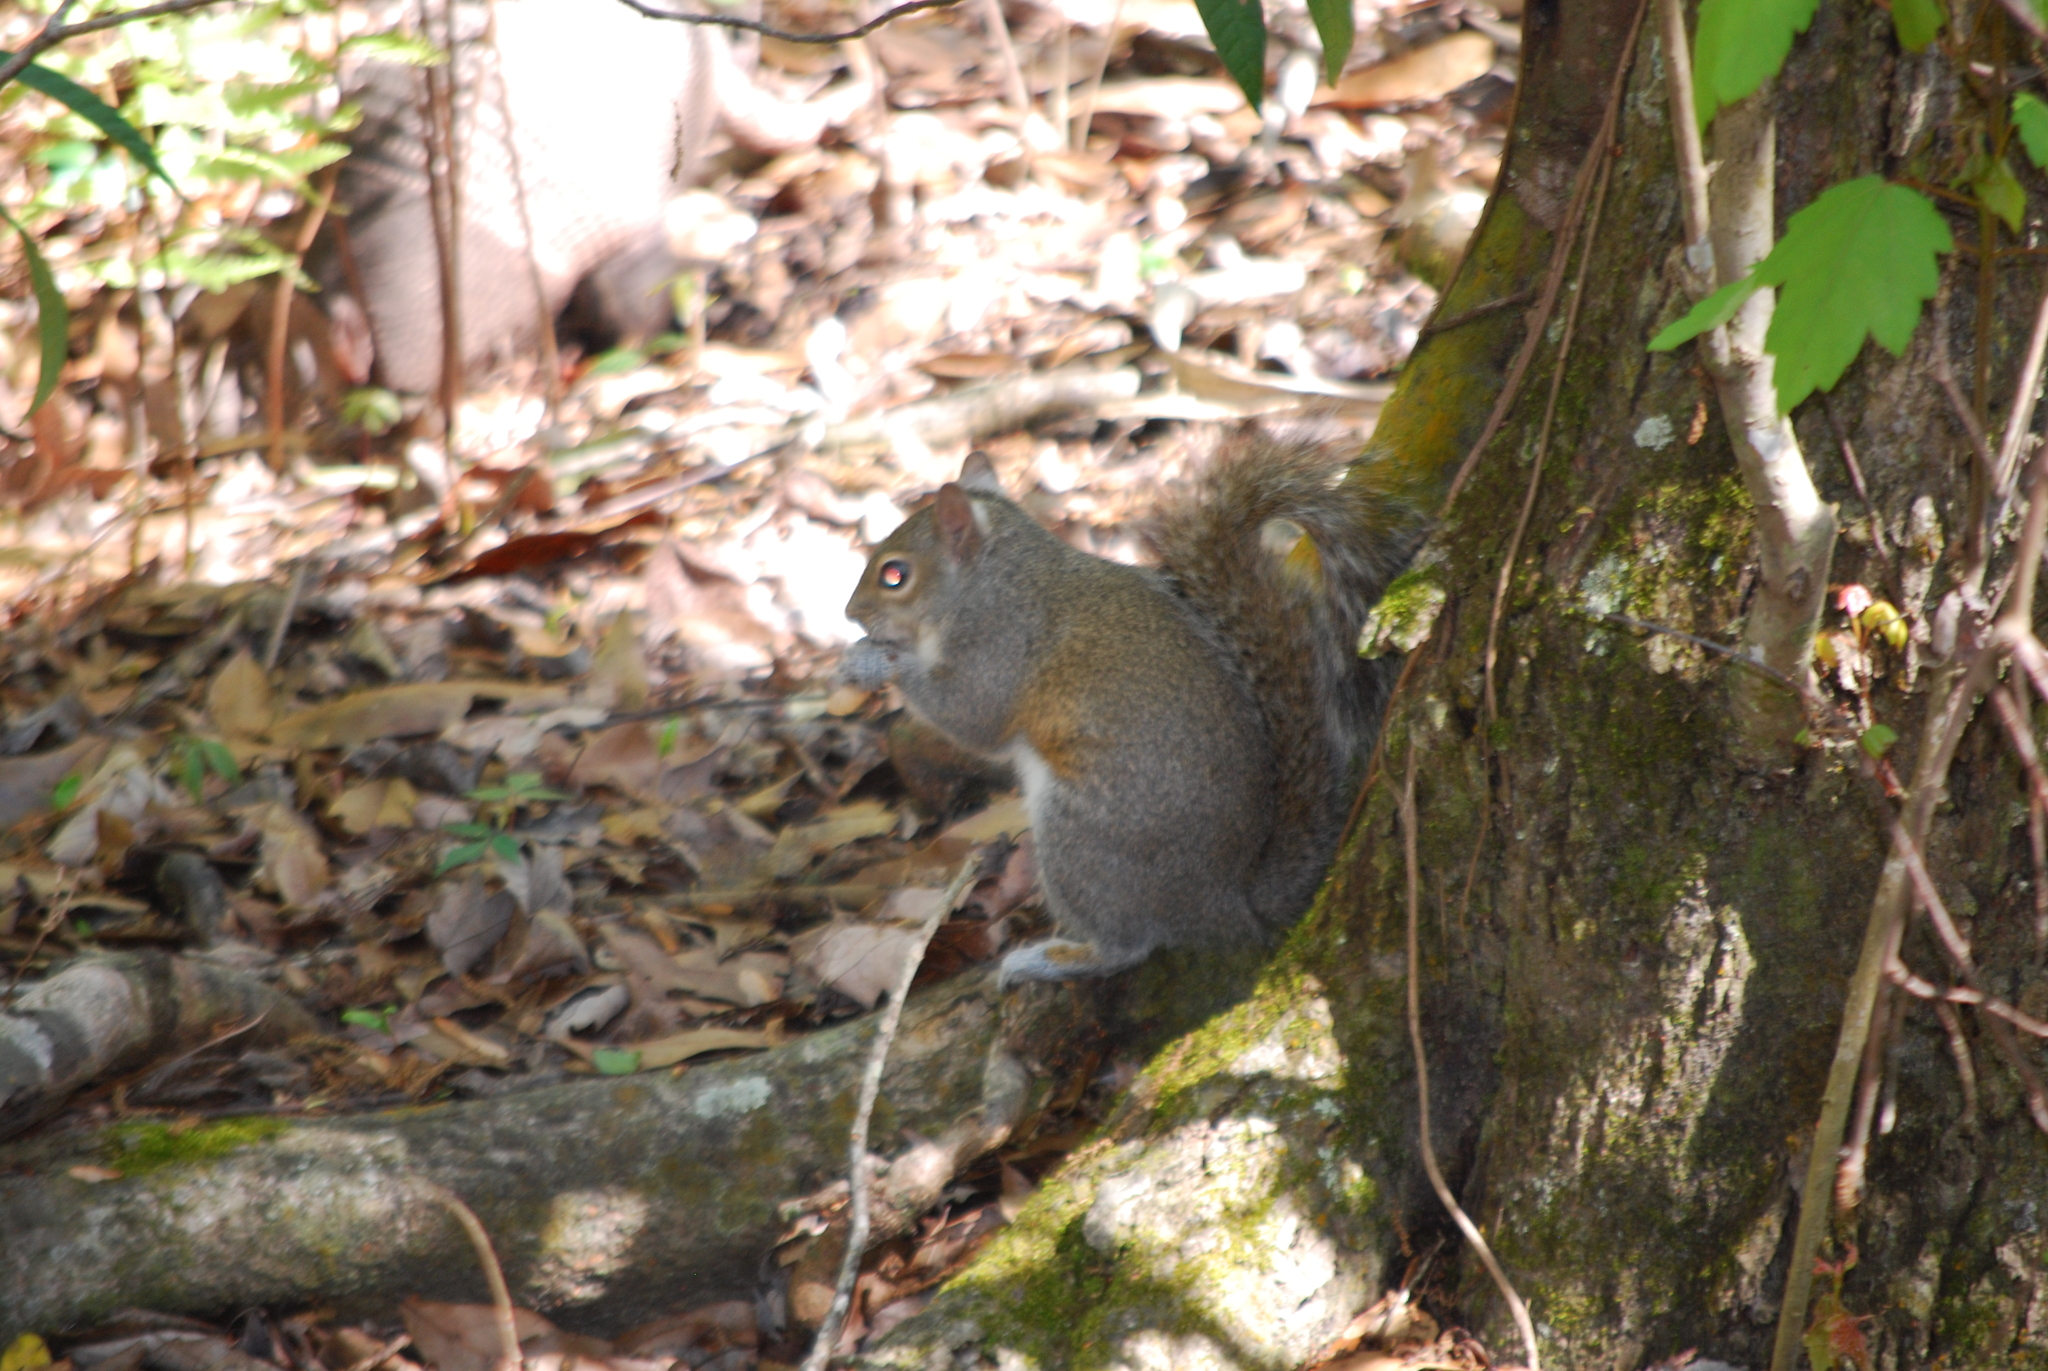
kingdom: Animalia
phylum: Chordata
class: Mammalia
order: Rodentia
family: Sciuridae
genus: Sciurus
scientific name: Sciurus carolinensis
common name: Eastern gray squirrel
